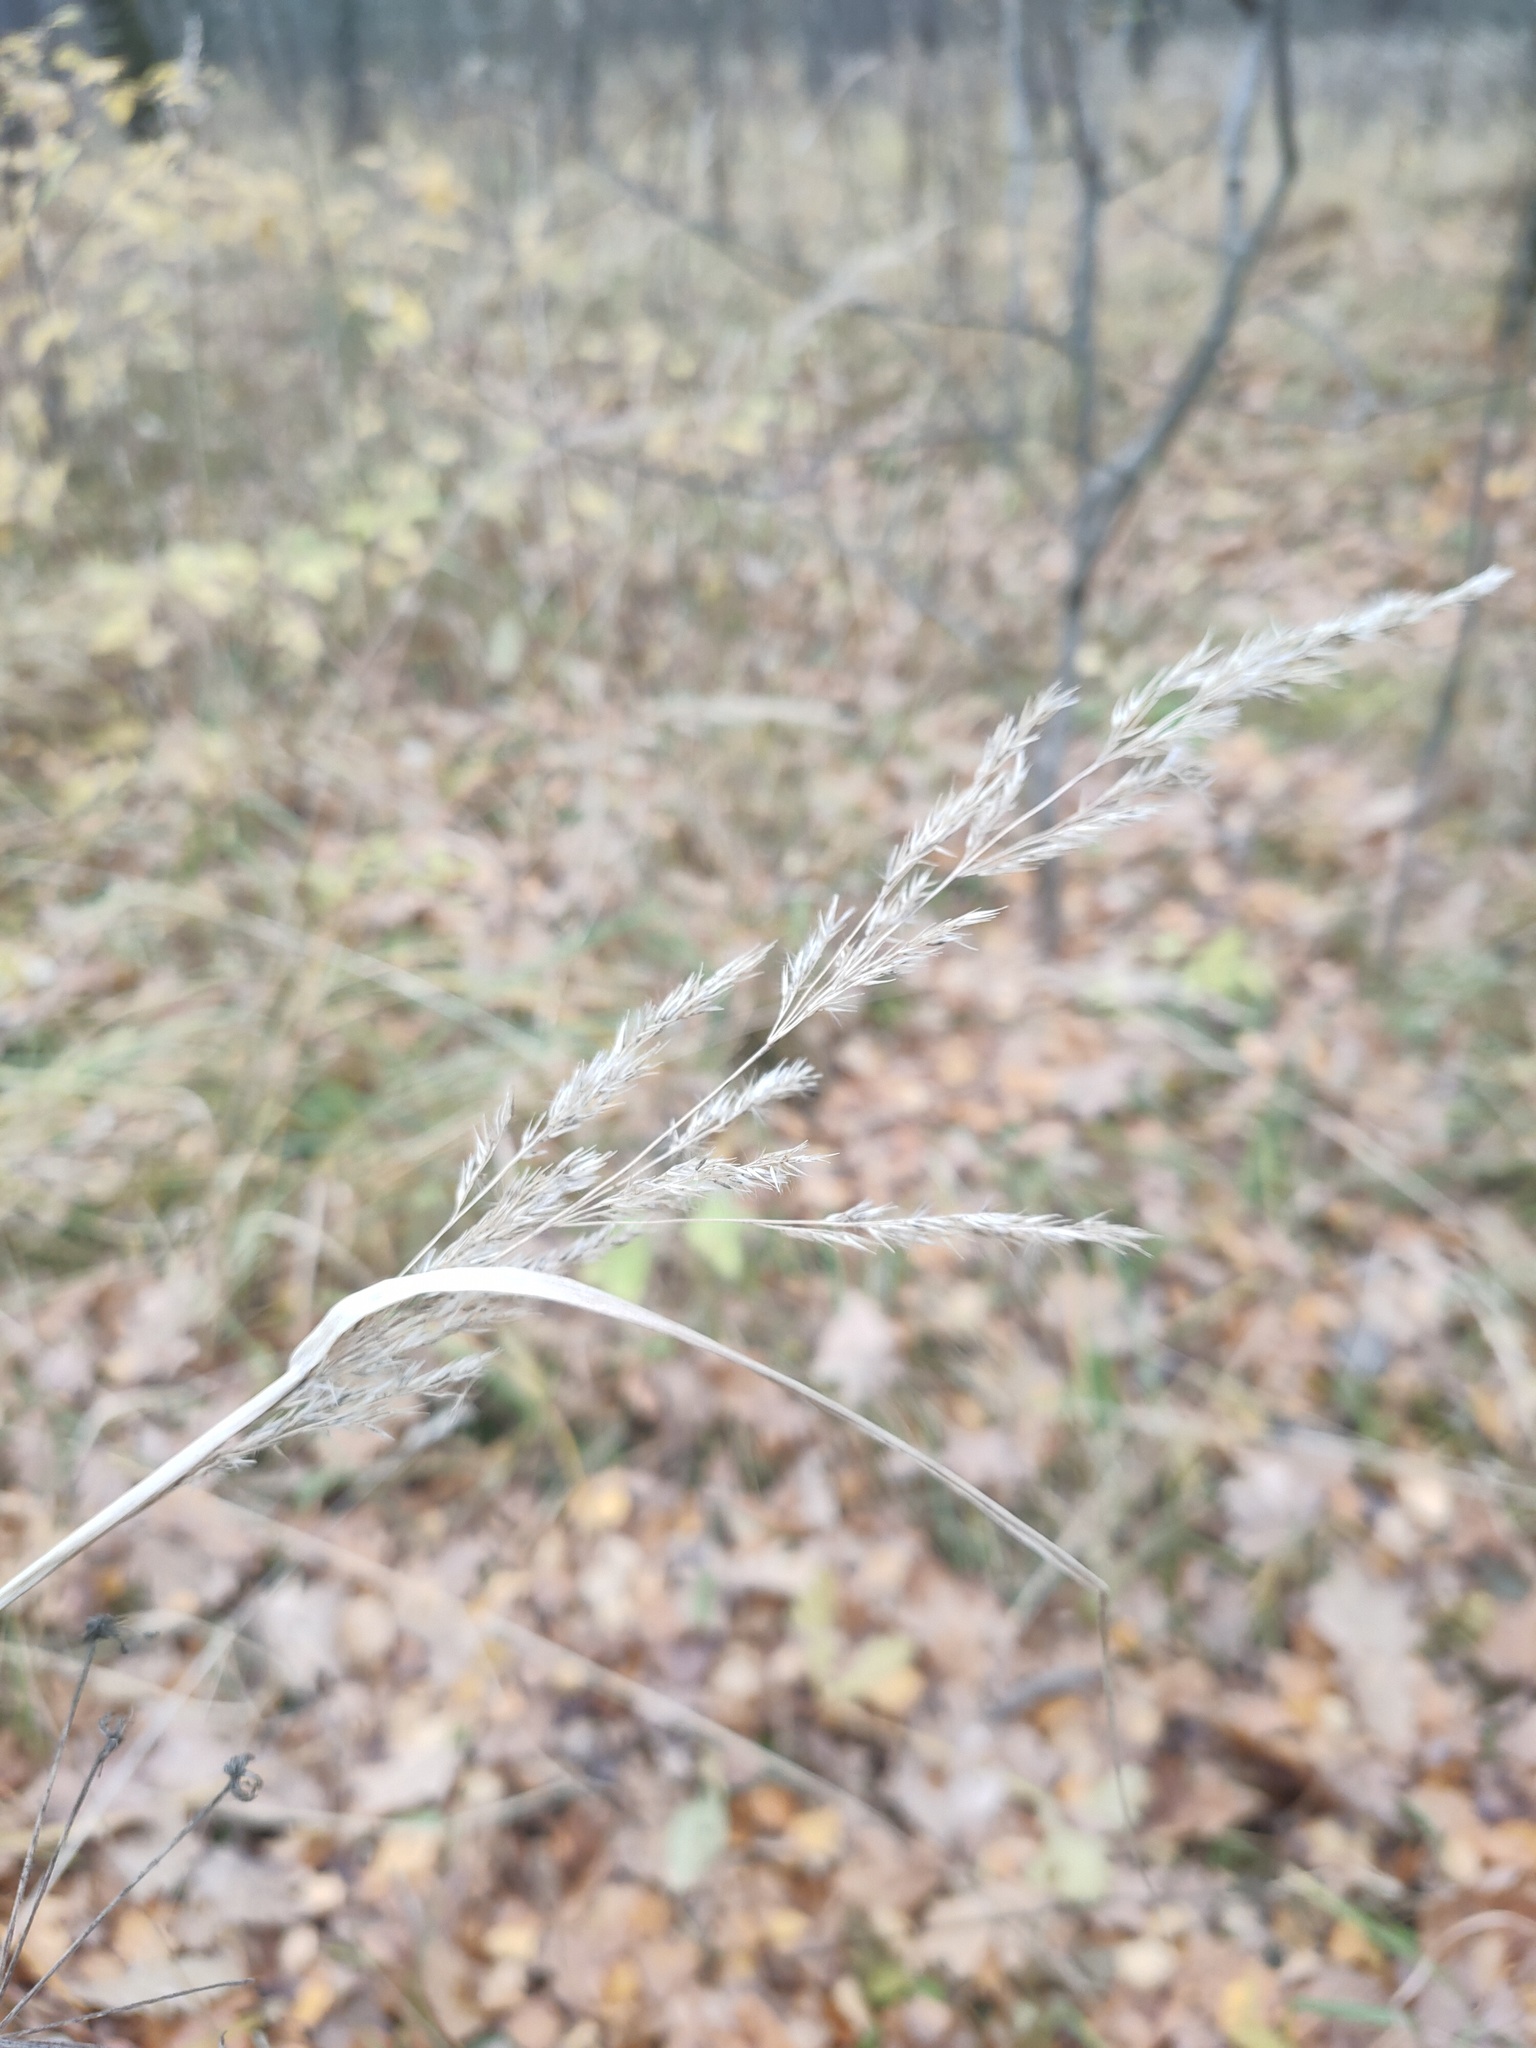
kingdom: Plantae
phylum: Tracheophyta
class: Liliopsida
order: Poales
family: Poaceae
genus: Calamagrostis
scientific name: Calamagrostis epigejos
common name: Wood small-reed
